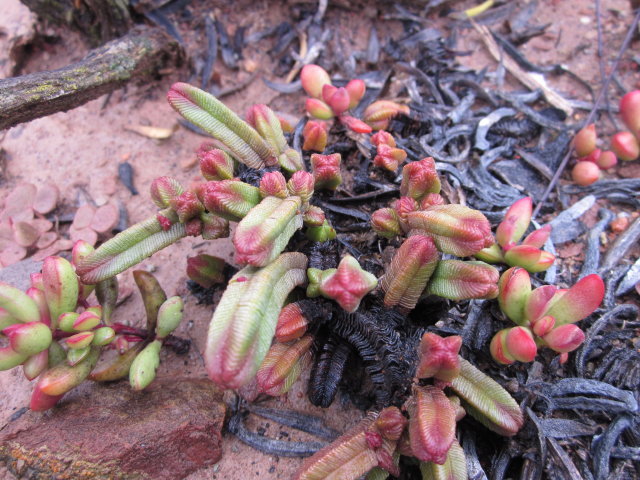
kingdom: Plantae
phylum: Tracheophyta
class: Magnoliopsida
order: Saxifragales
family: Crassulaceae
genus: Crassula
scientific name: Crassula pyramidalis
